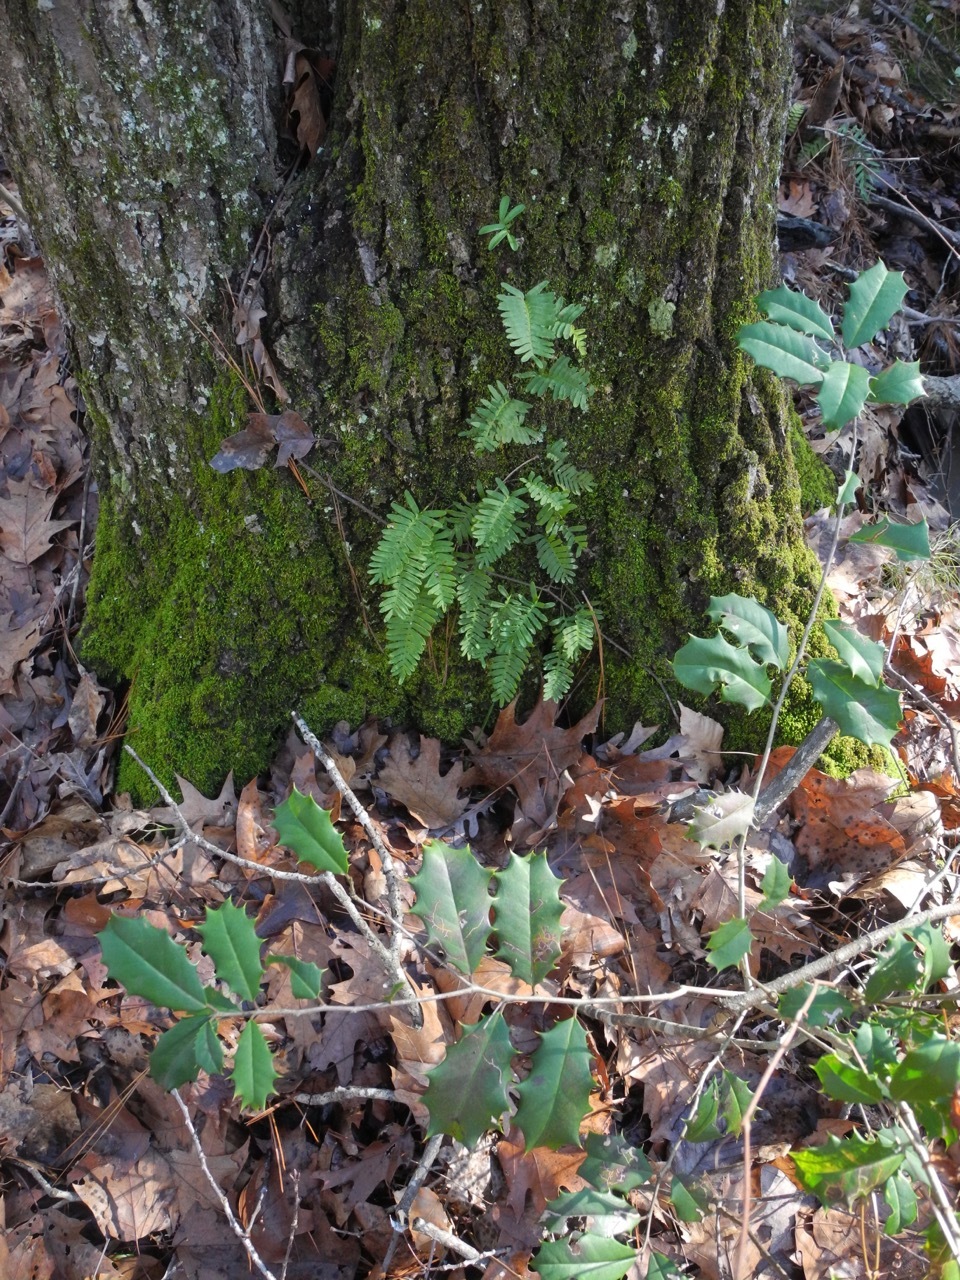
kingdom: Plantae
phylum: Tracheophyta
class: Polypodiopsida
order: Polypodiales
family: Polypodiaceae
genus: Pleopeltis
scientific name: Pleopeltis michauxiana
